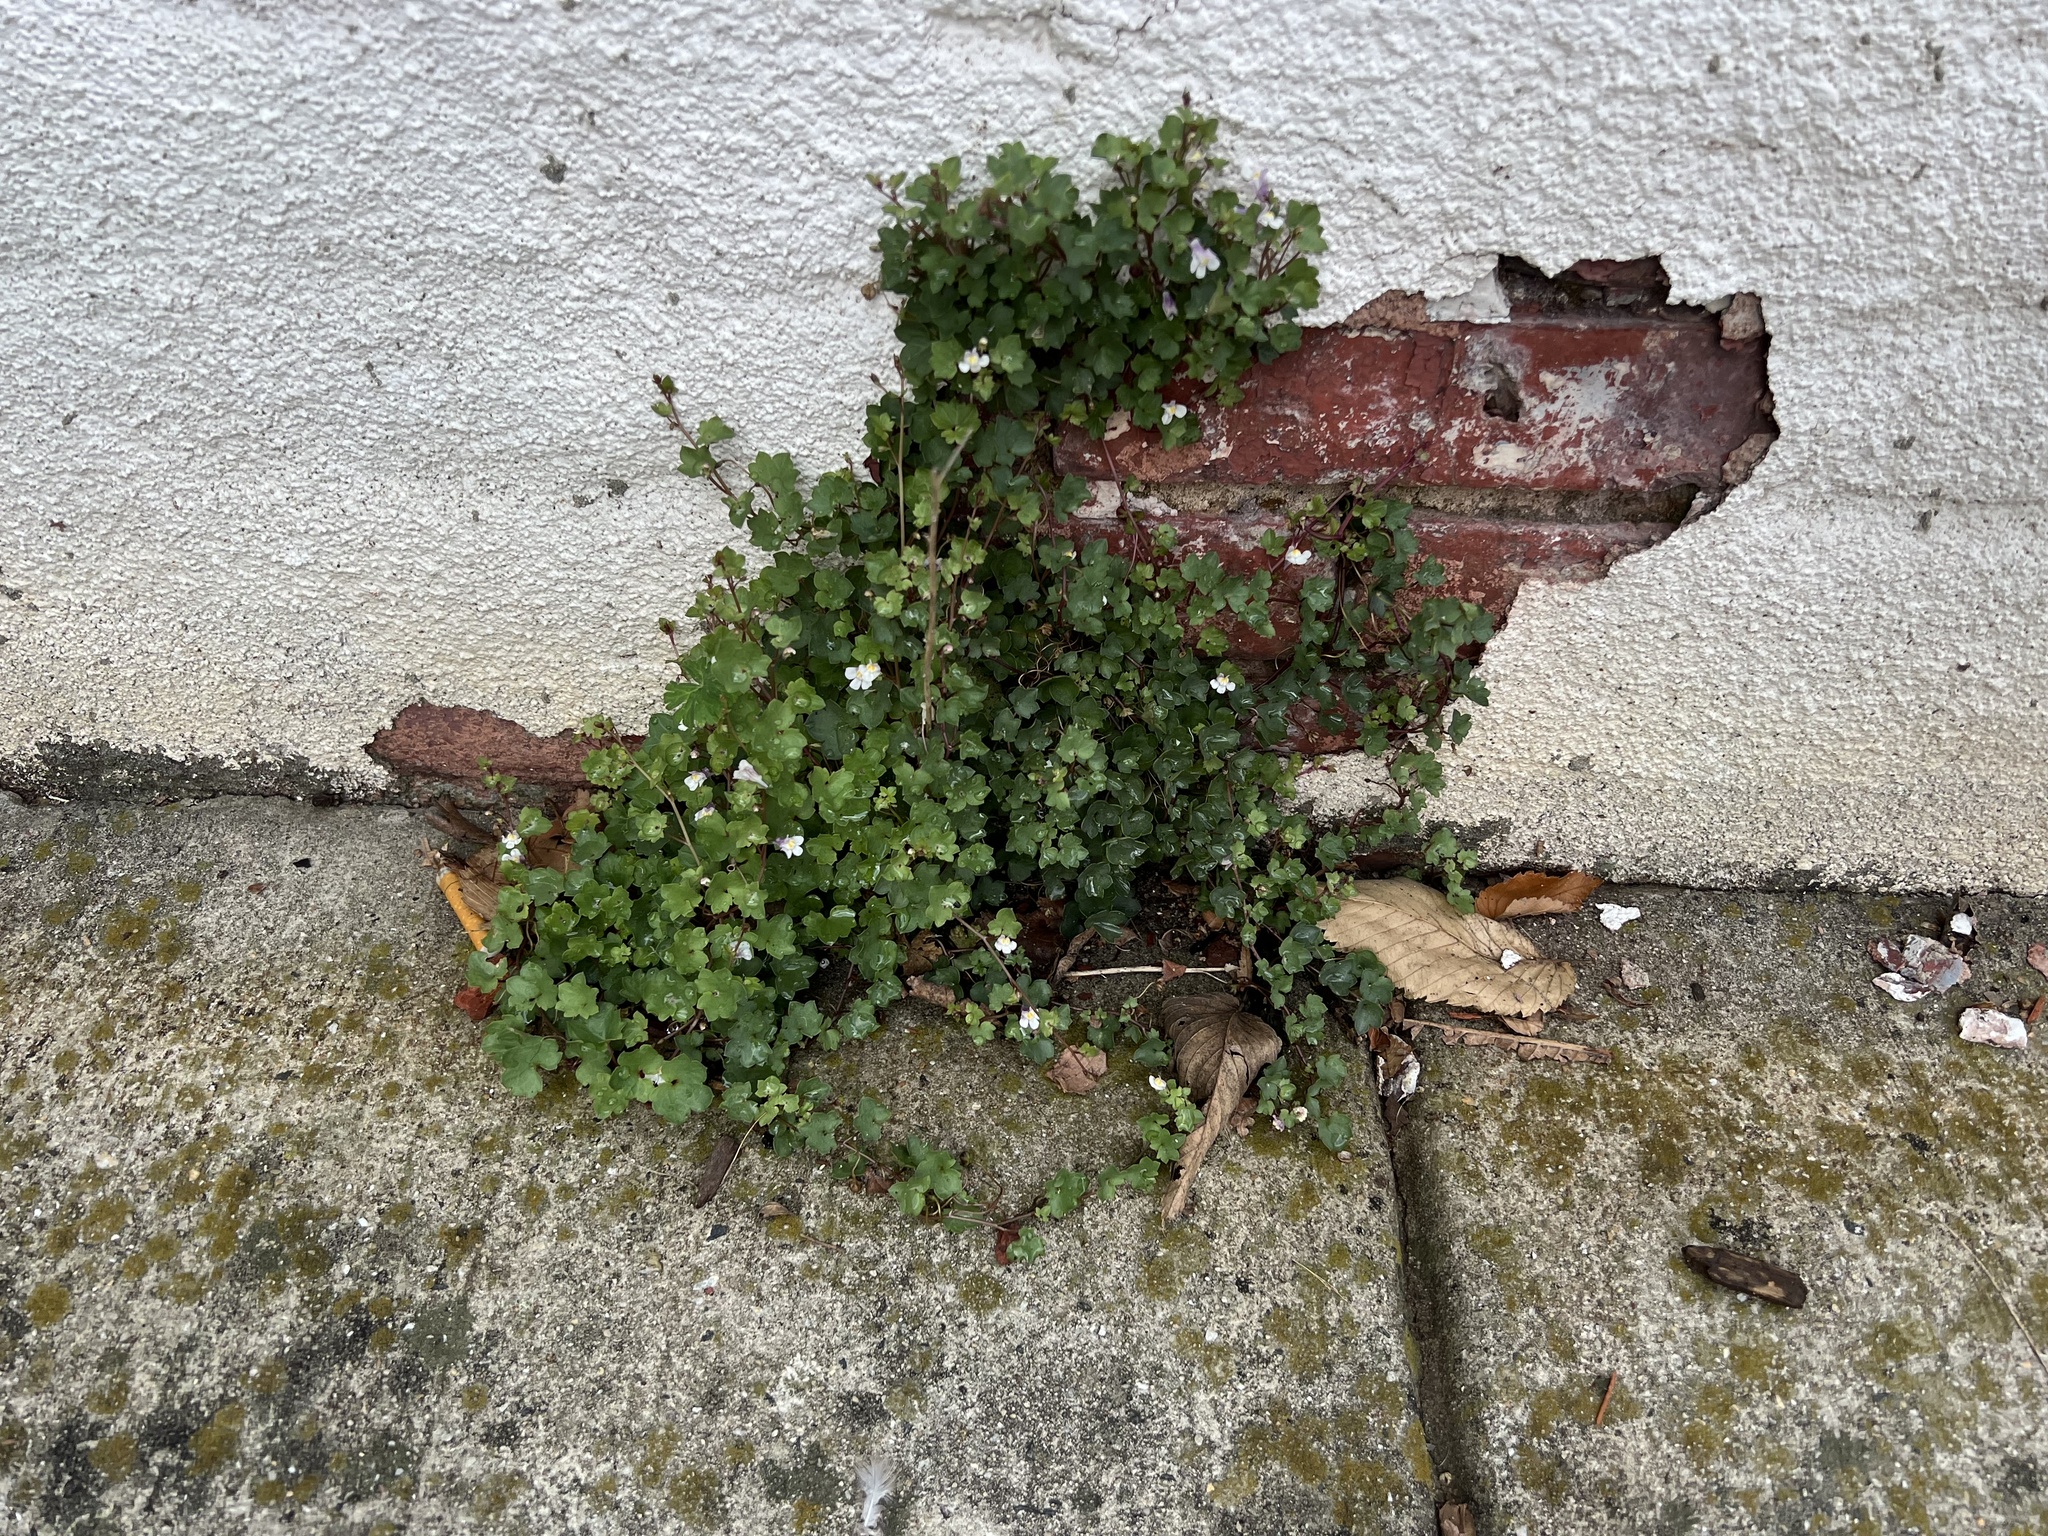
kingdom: Plantae
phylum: Tracheophyta
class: Magnoliopsida
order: Lamiales
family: Plantaginaceae
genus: Cymbalaria
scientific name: Cymbalaria muralis
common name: Ivy-leaved toadflax
